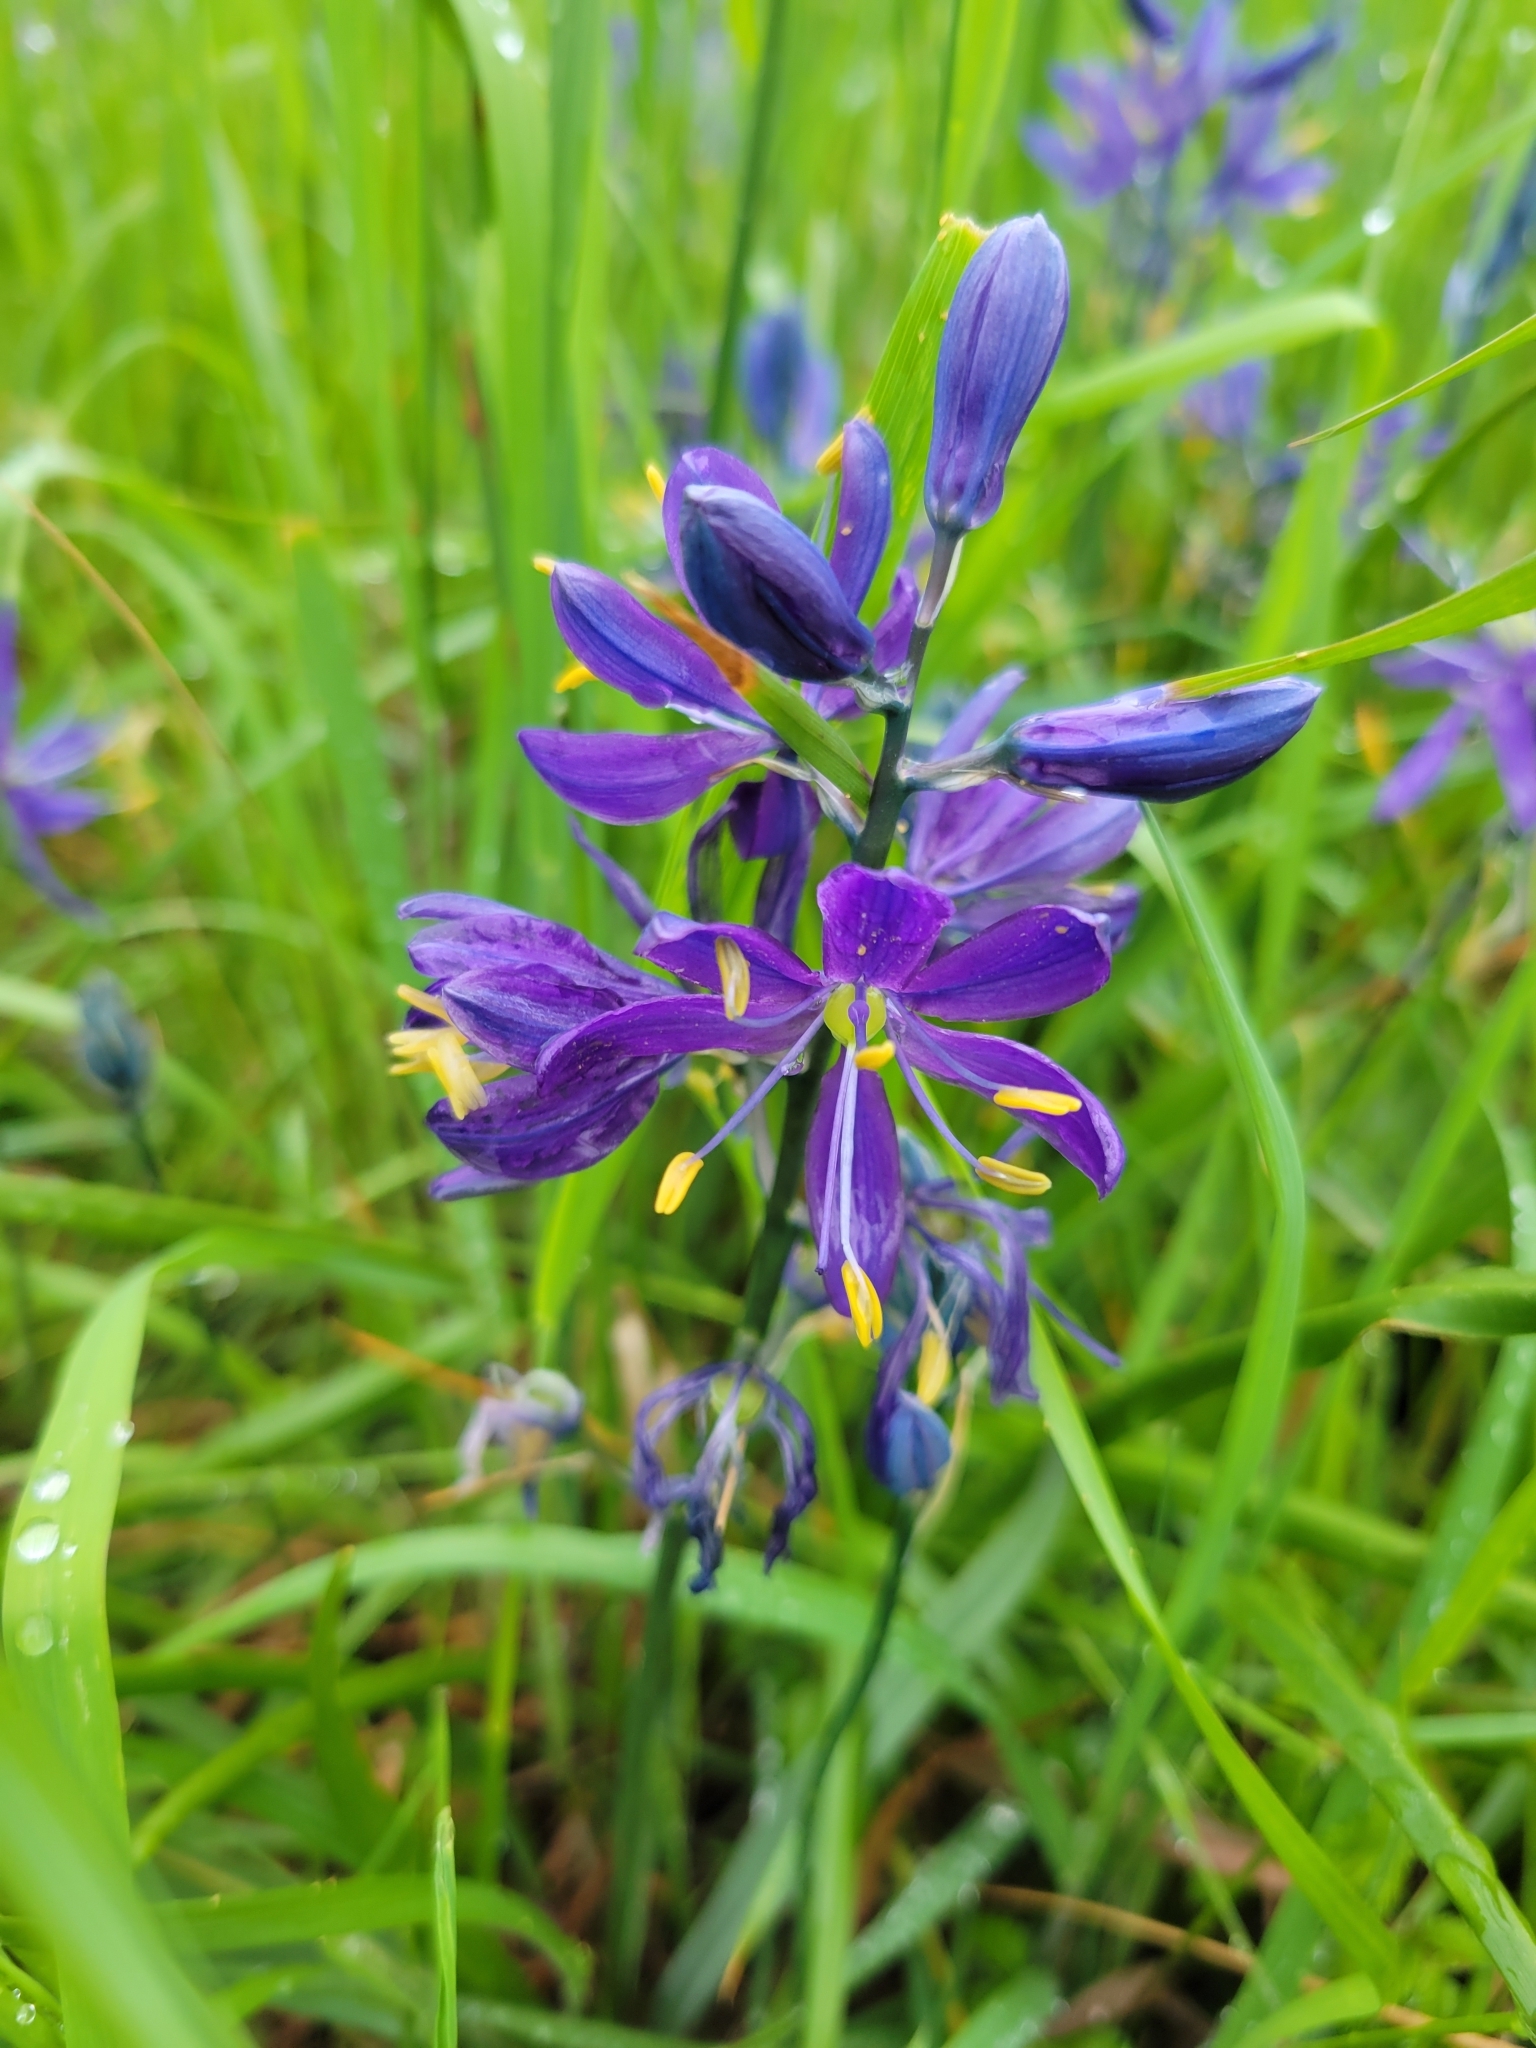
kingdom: Plantae
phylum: Tracheophyta
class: Liliopsida
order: Asparagales
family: Asparagaceae
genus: Camassia
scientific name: Camassia quamash
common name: Common camas
